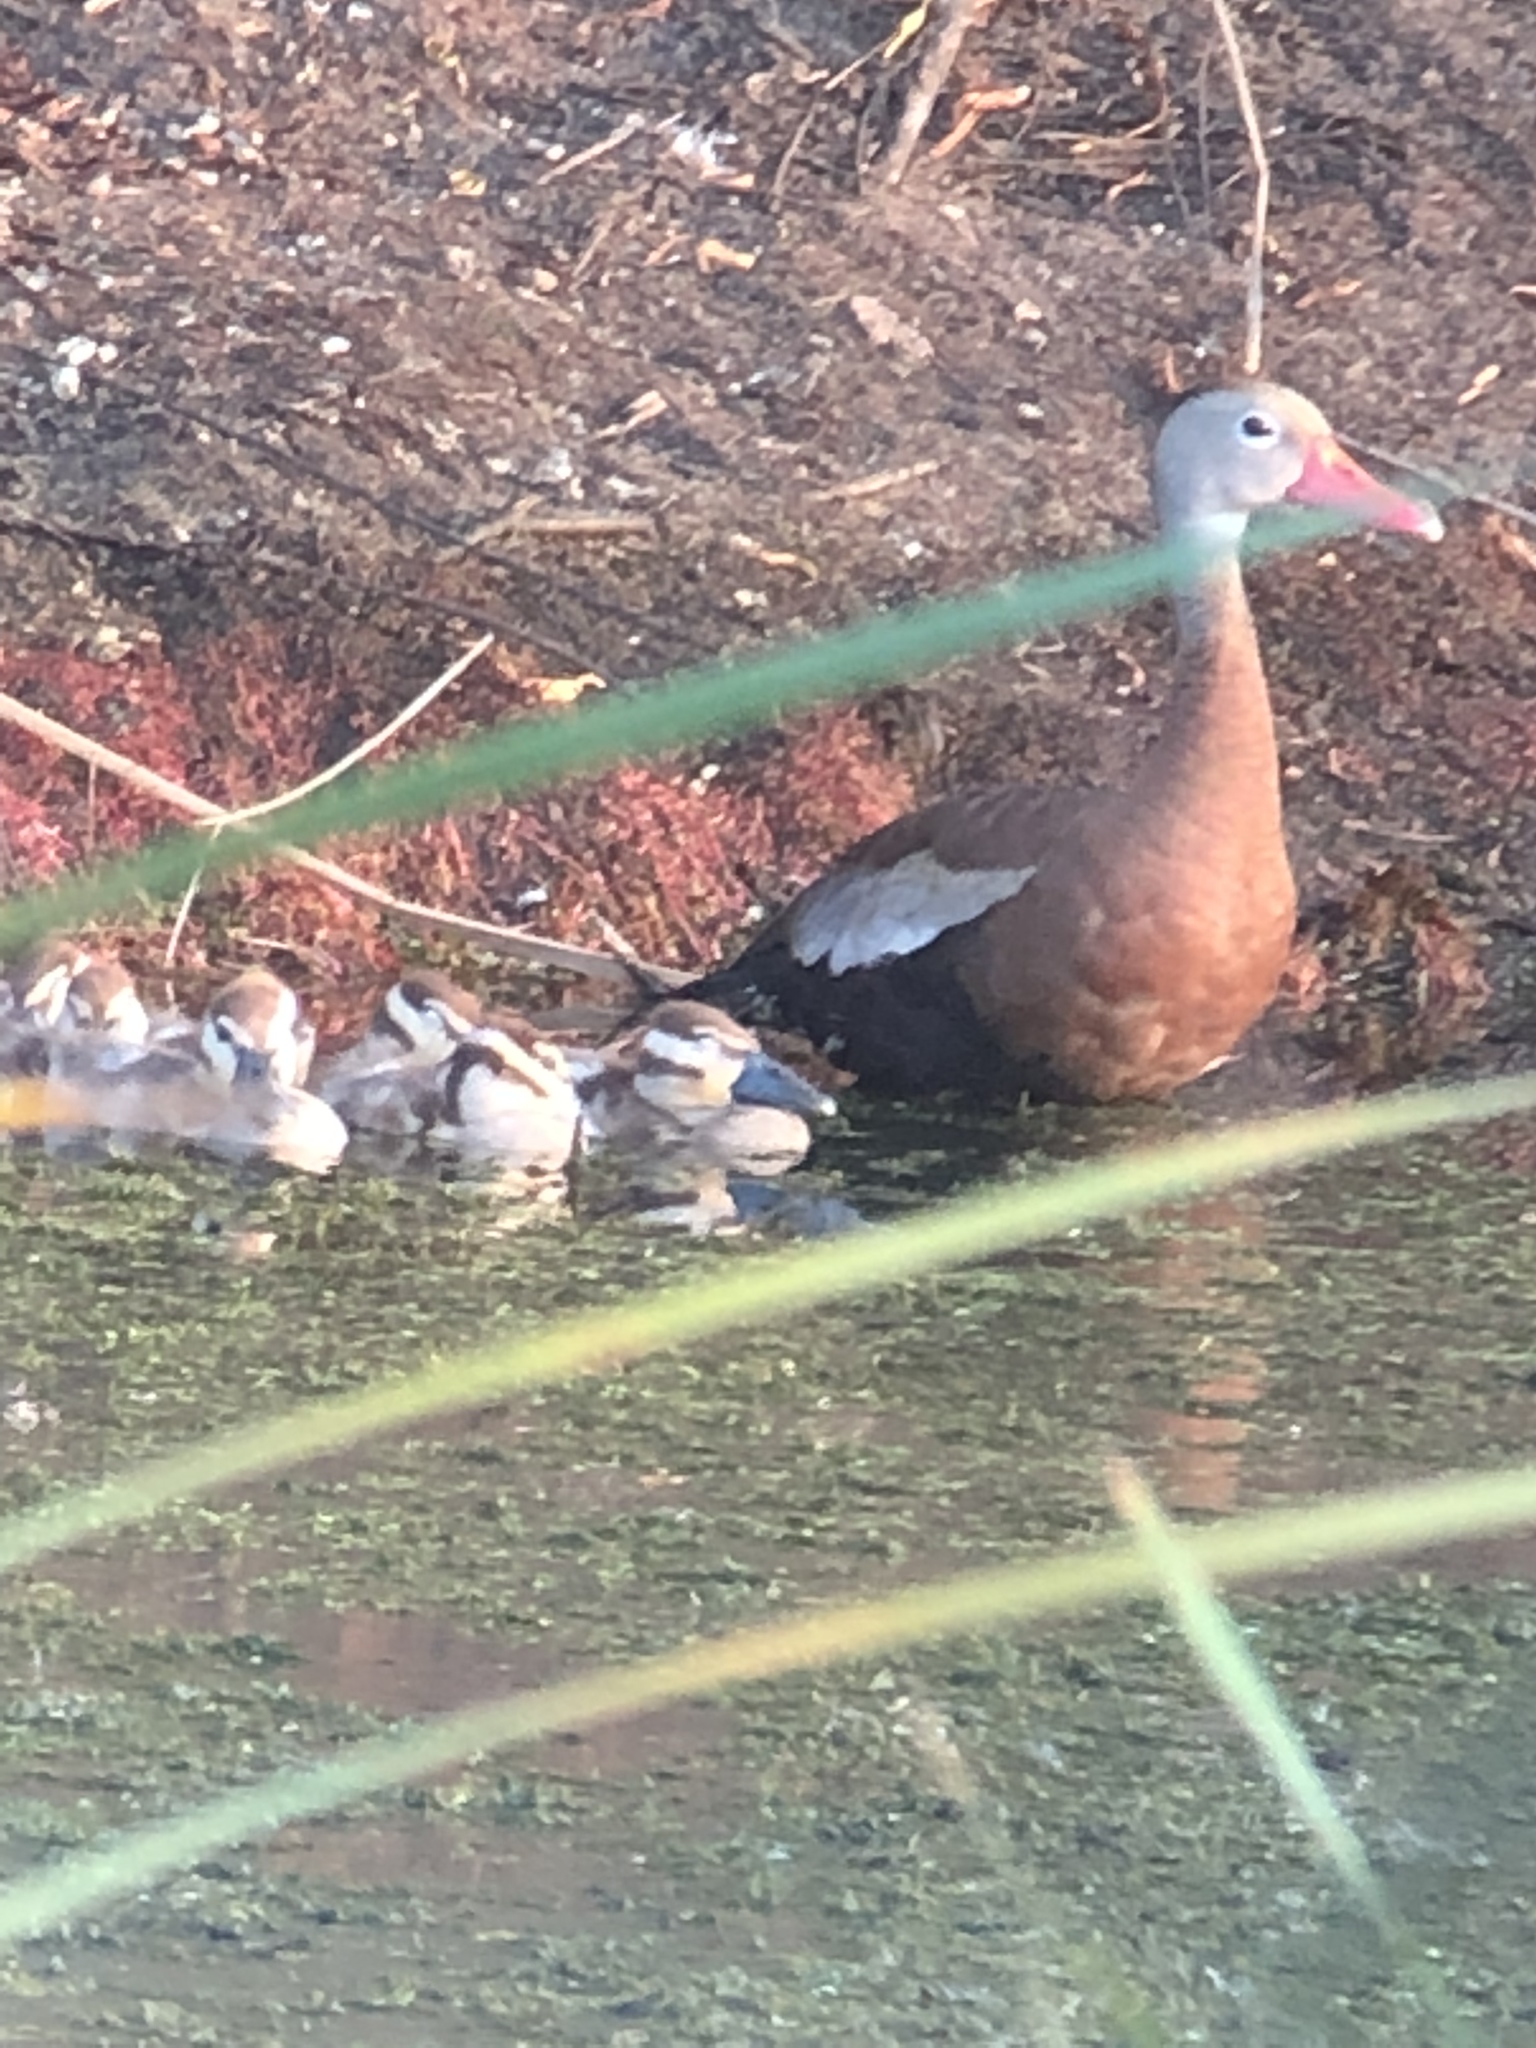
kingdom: Animalia
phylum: Chordata
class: Aves
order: Anseriformes
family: Anatidae
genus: Dendrocygna
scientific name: Dendrocygna autumnalis
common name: Black-bellied whistling duck
